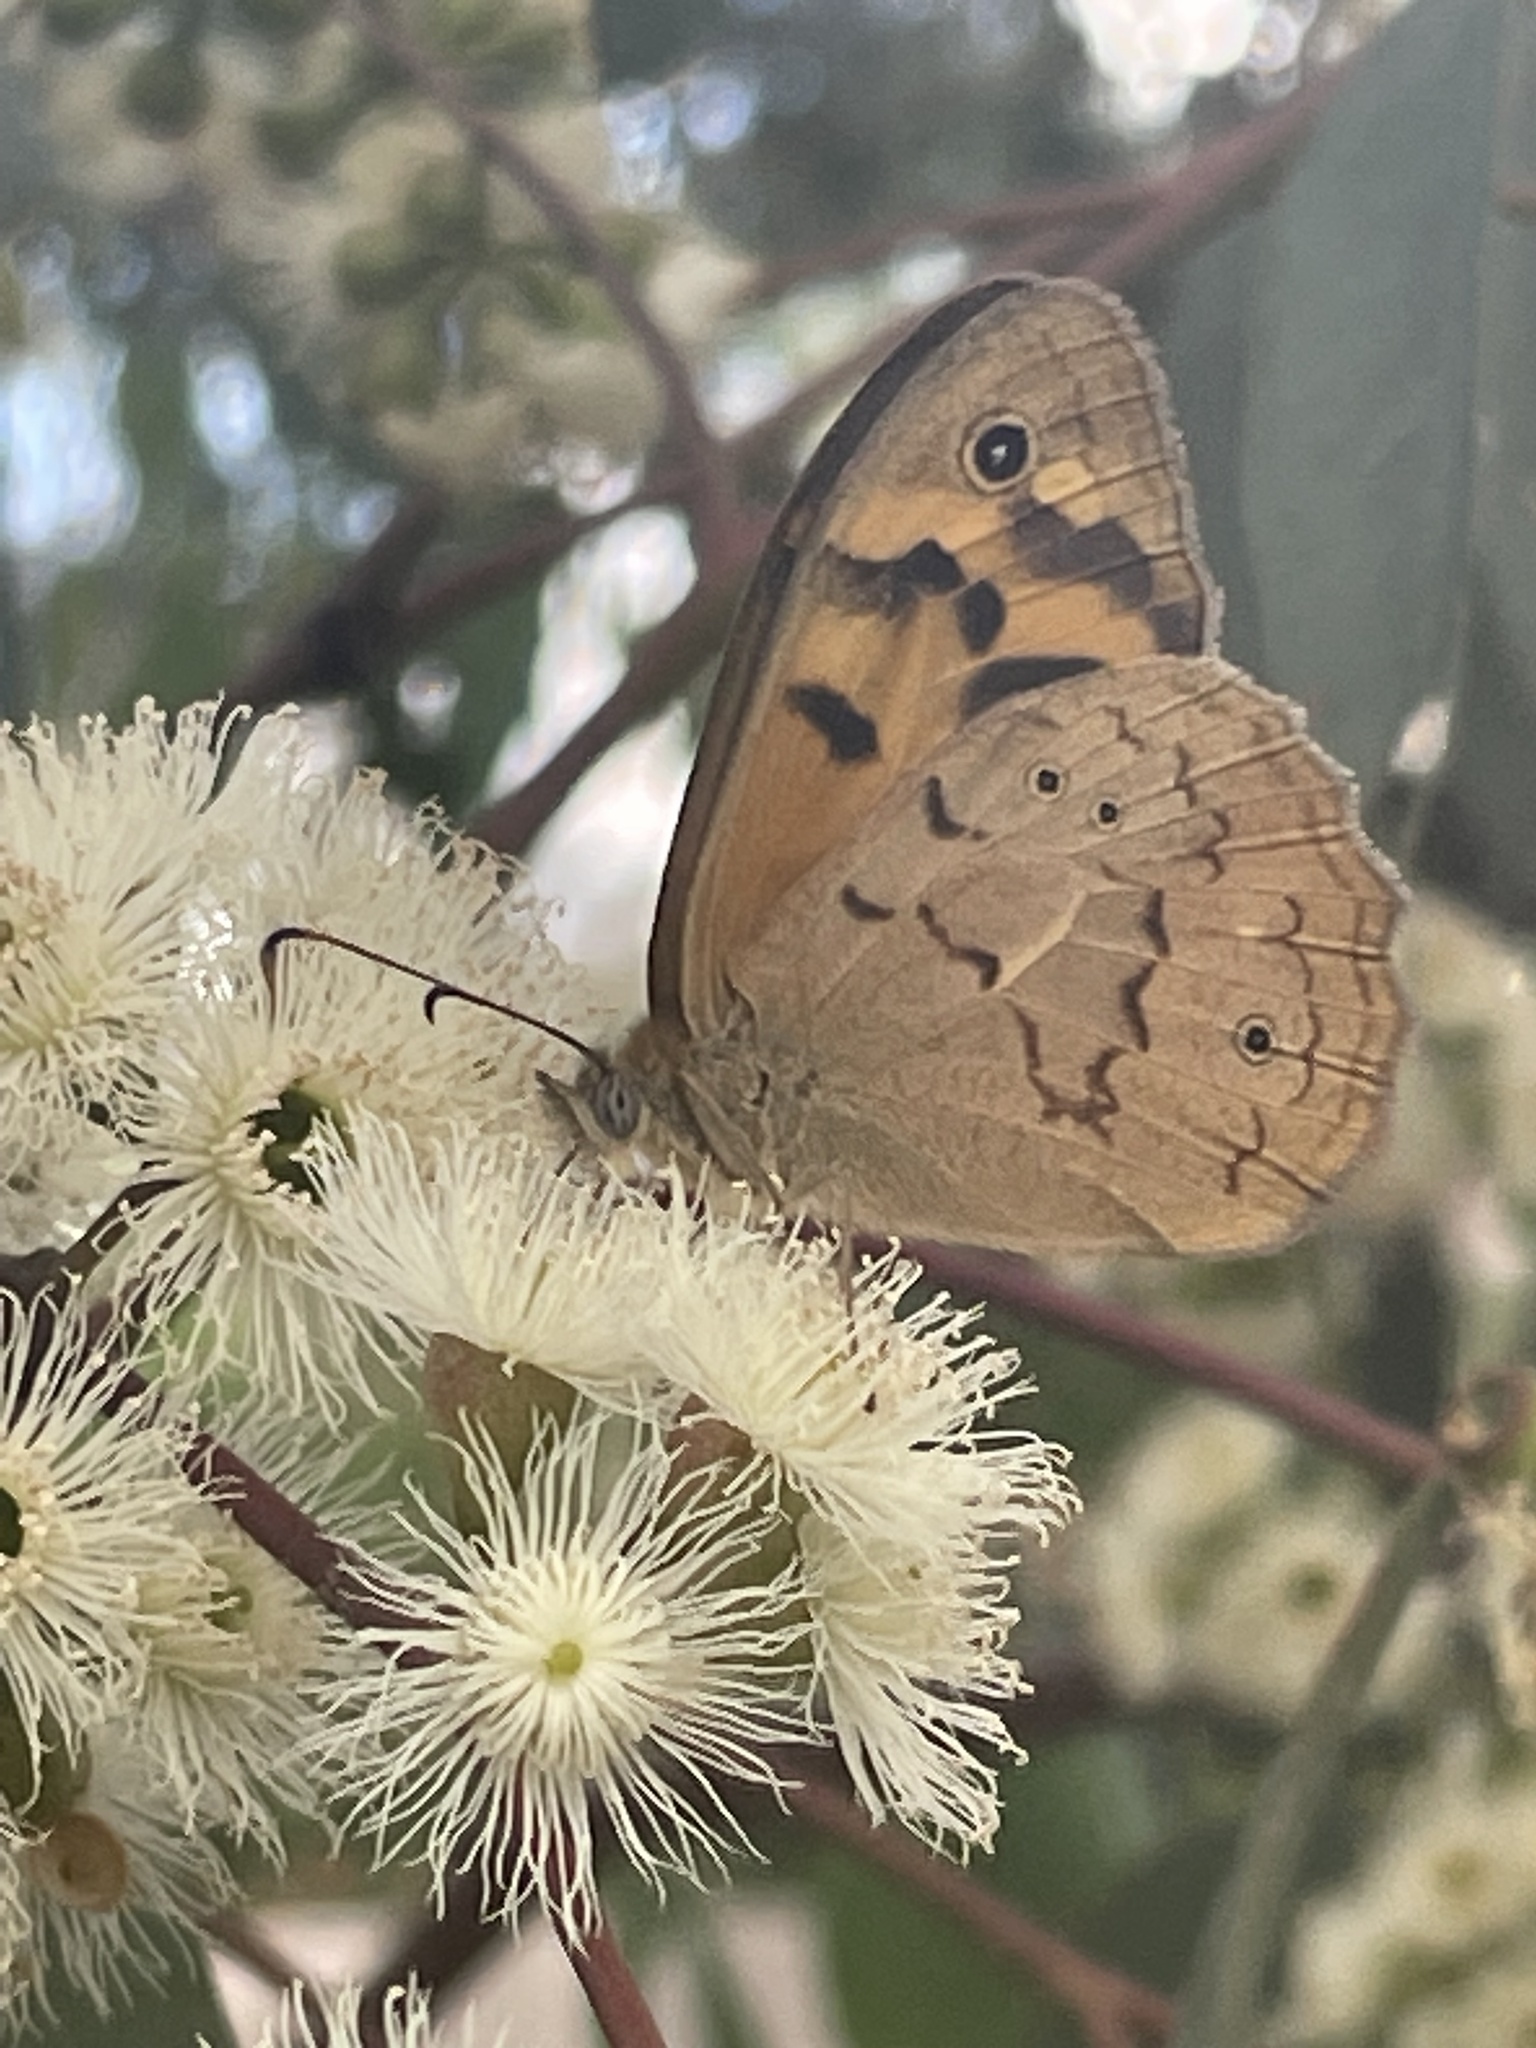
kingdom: Animalia
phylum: Arthropoda
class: Insecta
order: Lepidoptera
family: Nymphalidae
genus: Heteronympha
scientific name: Heteronympha merope
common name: Common brown
